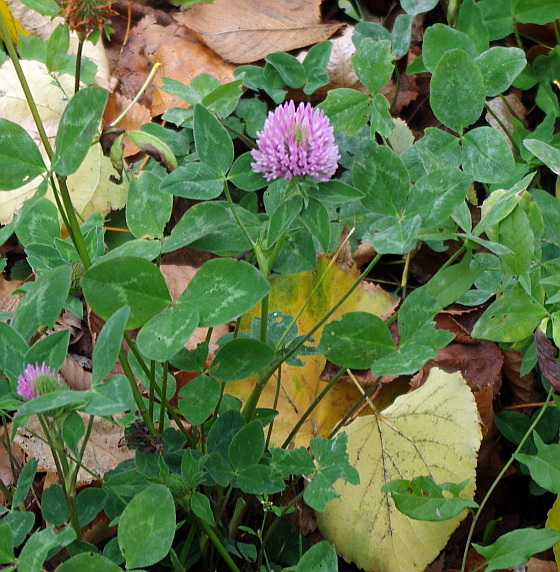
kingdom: Plantae
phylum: Tracheophyta
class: Magnoliopsida
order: Fabales
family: Fabaceae
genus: Trifolium
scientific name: Trifolium pratense
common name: Red clover
